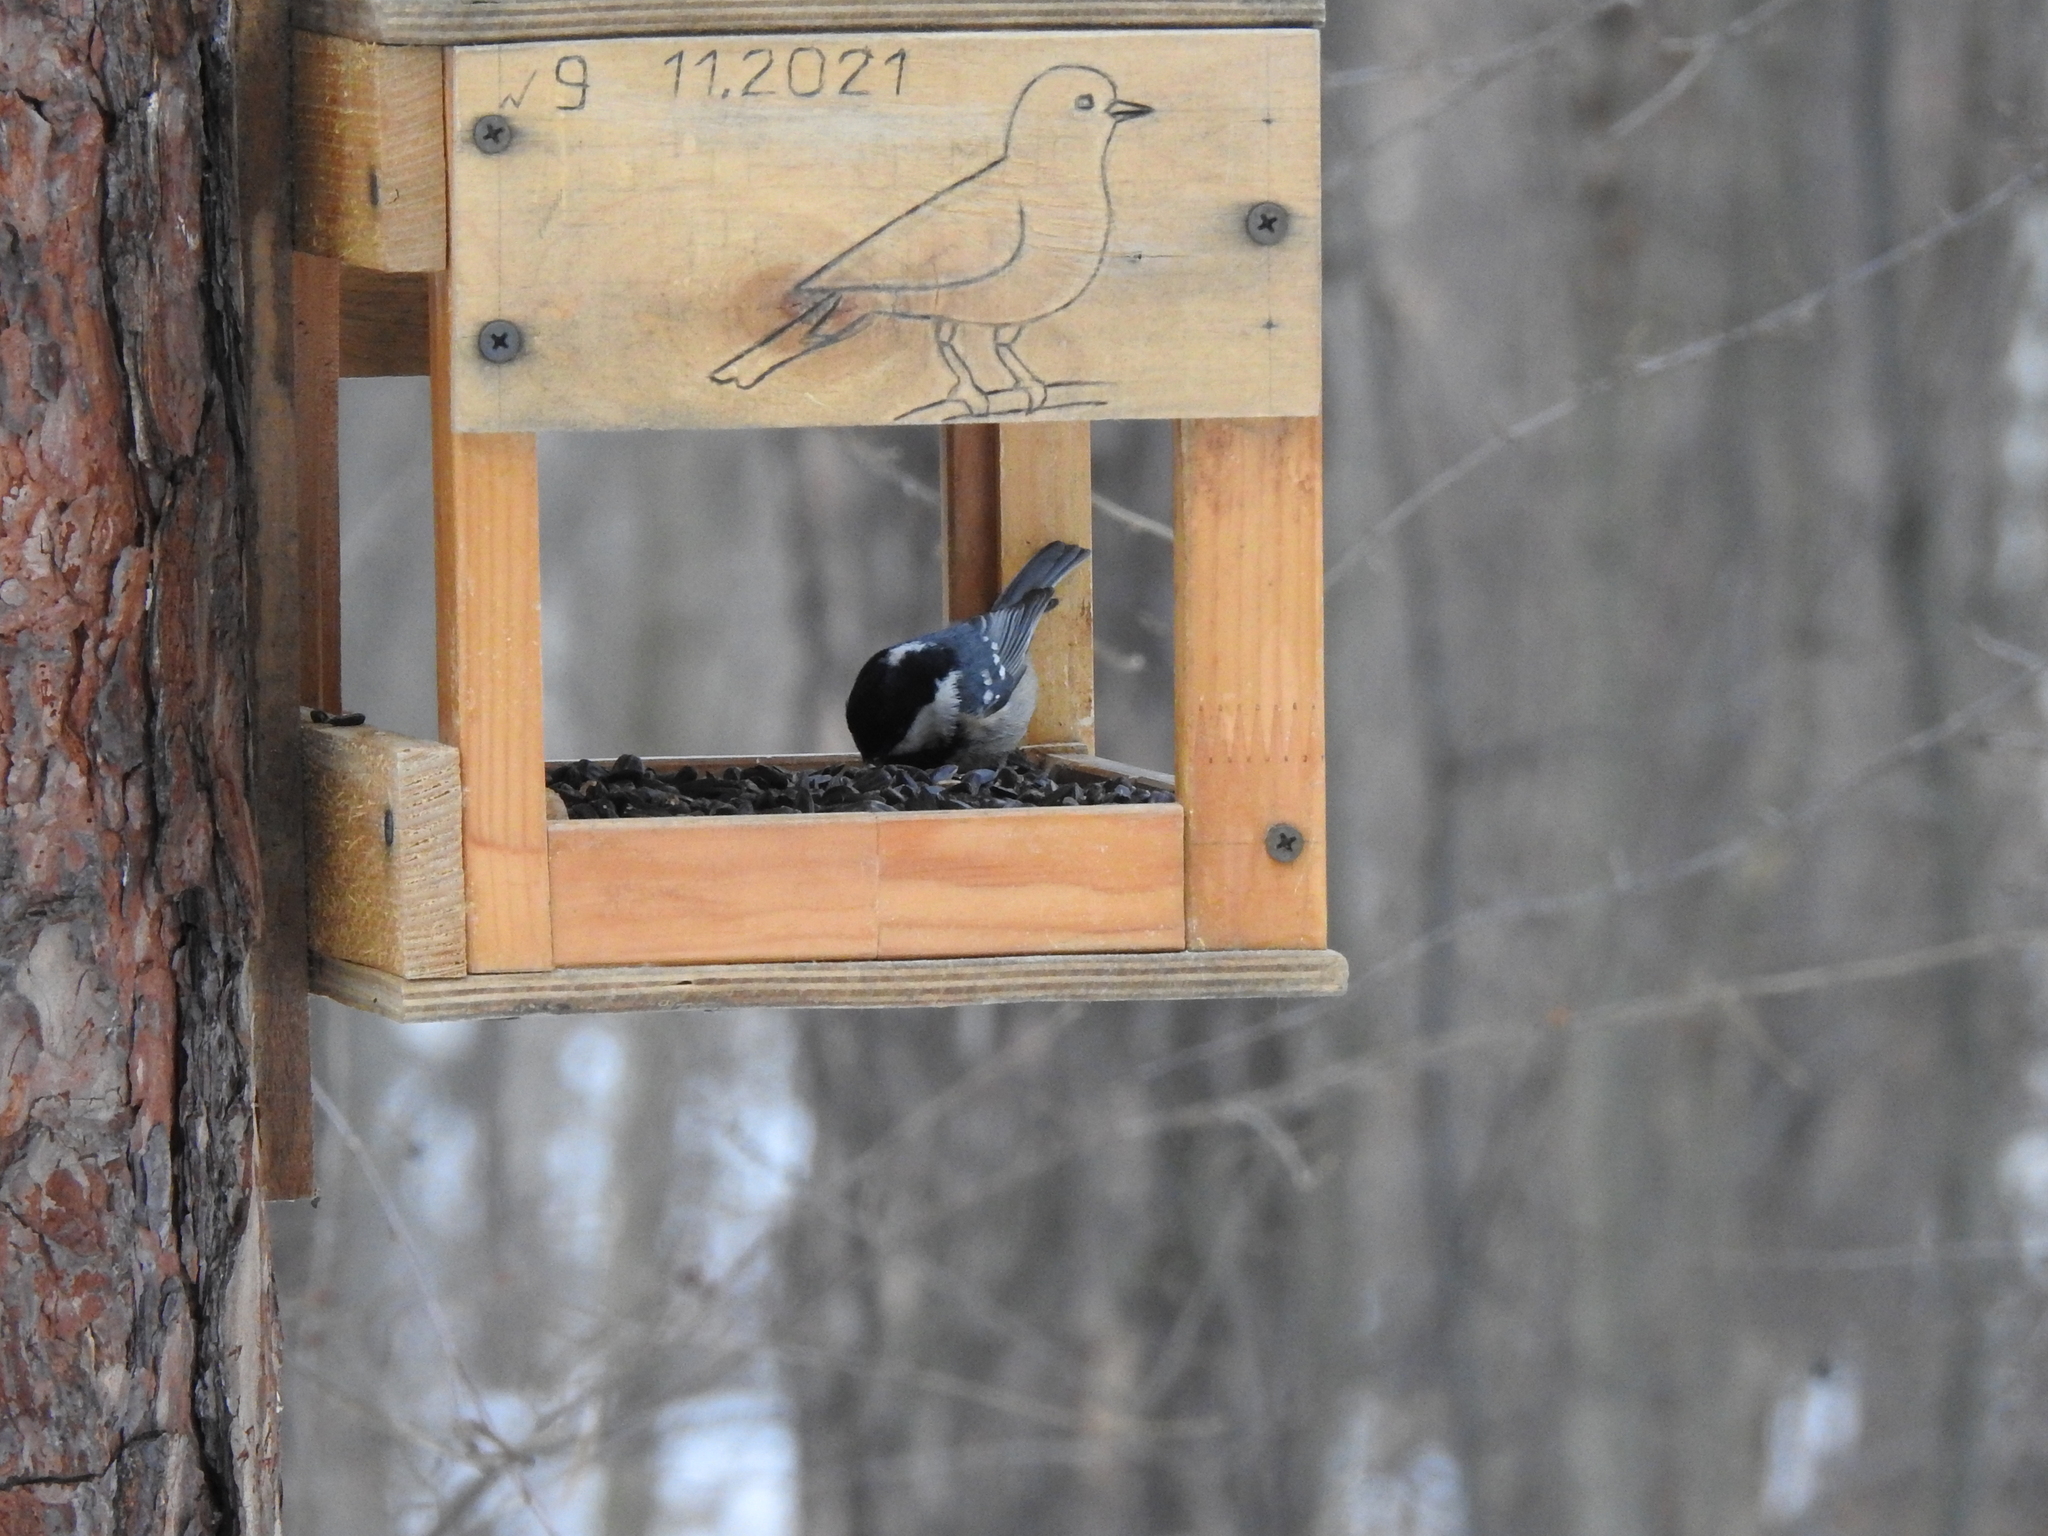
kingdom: Animalia
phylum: Chordata
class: Aves
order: Passeriformes
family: Paridae
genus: Periparus
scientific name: Periparus ater
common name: Coal tit
